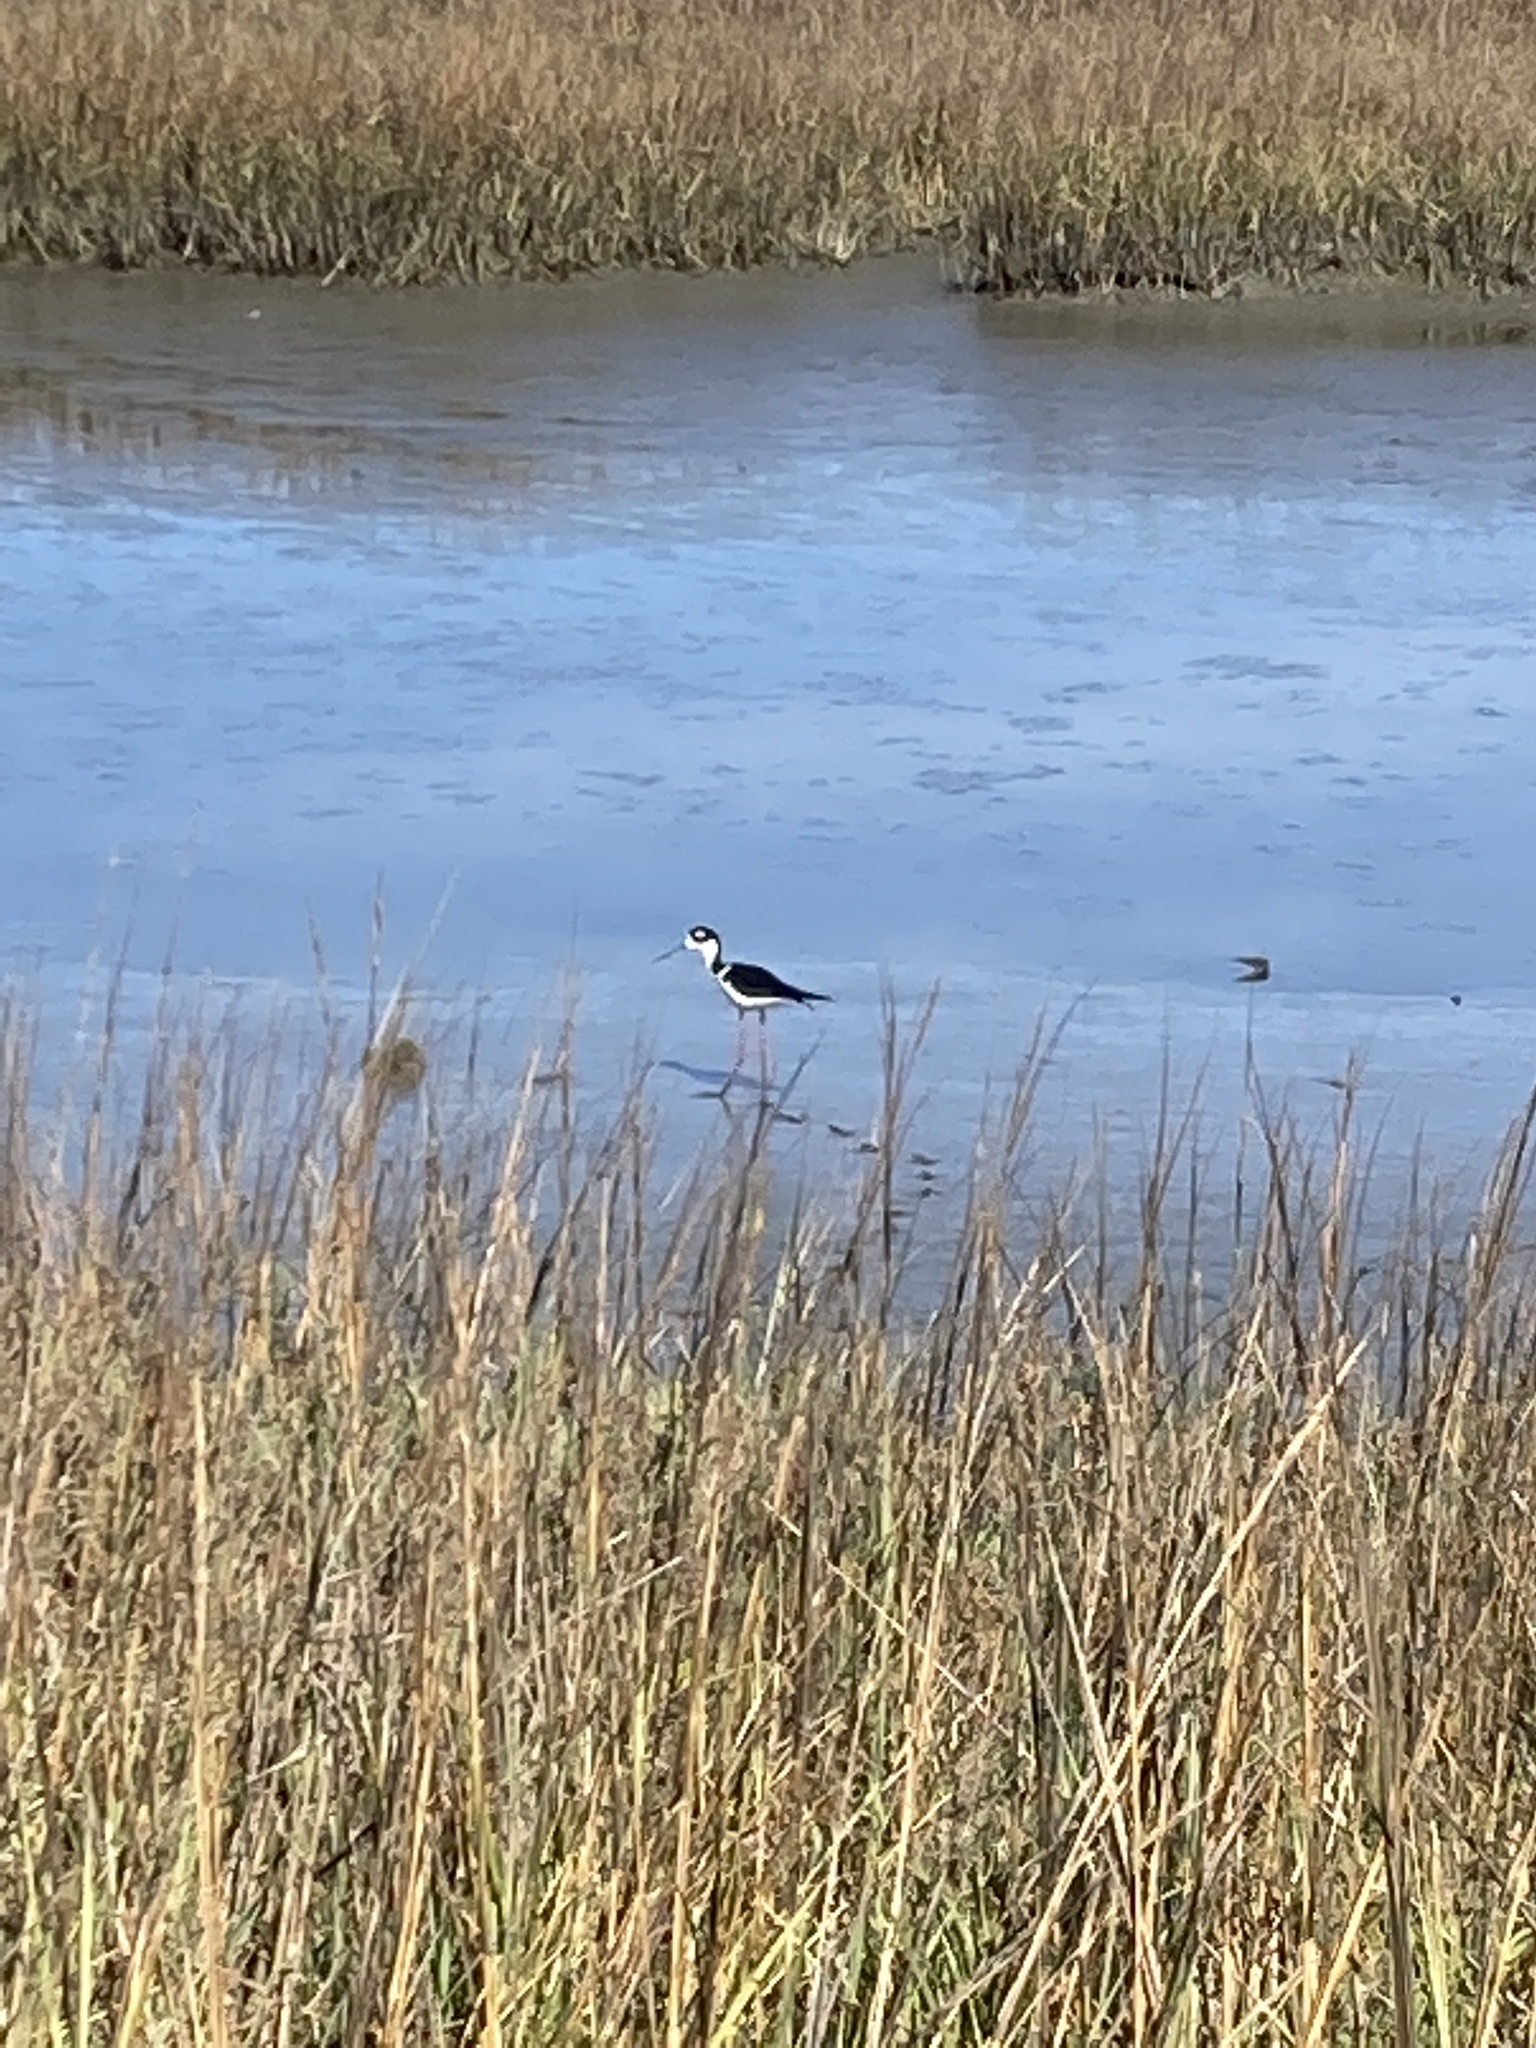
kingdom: Animalia
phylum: Chordata
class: Aves
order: Charadriiformes
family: Recurvirostridae
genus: Himantopus
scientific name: Himantopus mexicanus
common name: Black-necked stilt
